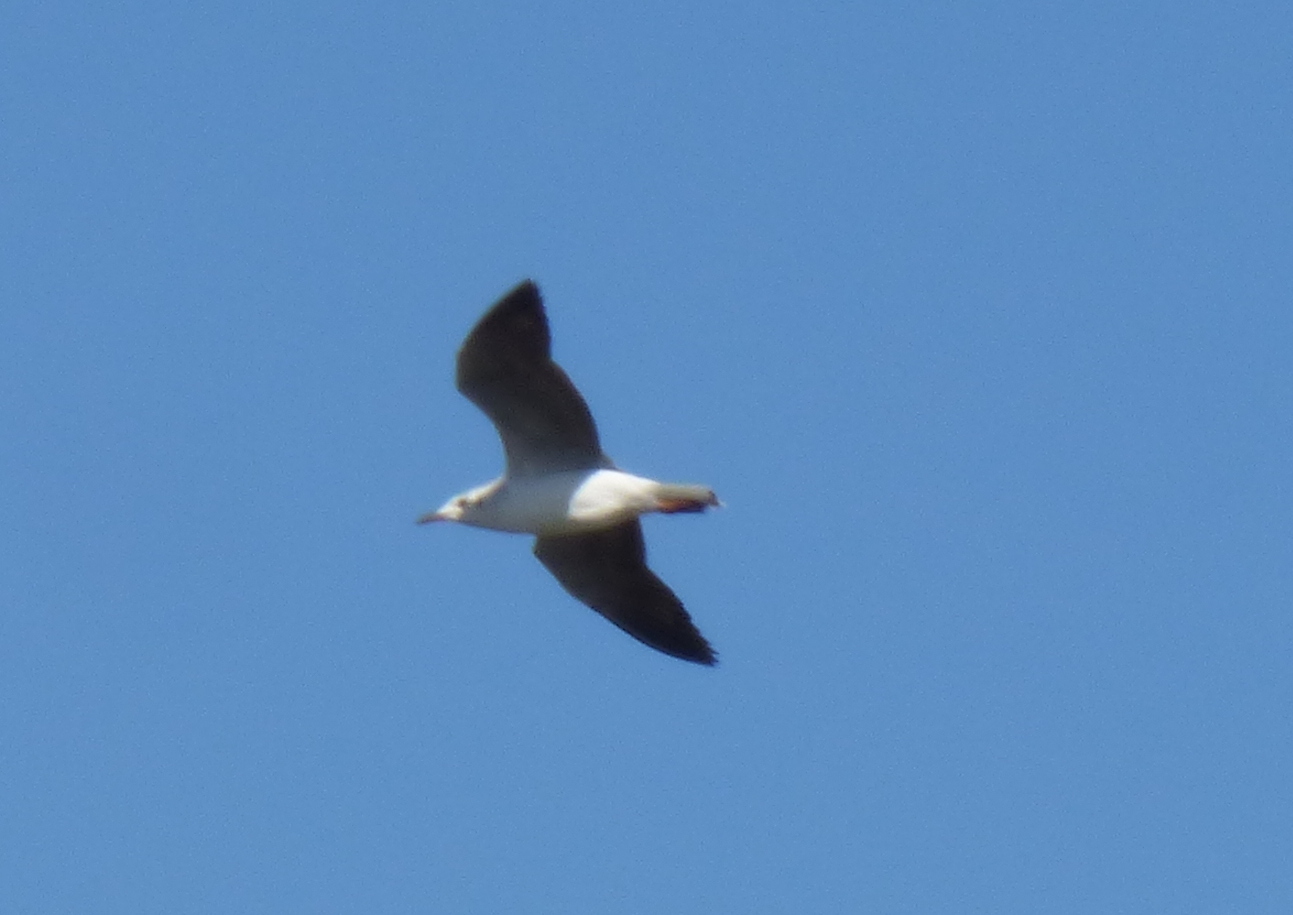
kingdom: Animalia
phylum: Chordata
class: Aves
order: Charadriiformes
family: Laridae
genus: Chroicocephalus
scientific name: Chroicocephalus maculipennis
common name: Brown-hooded gull
